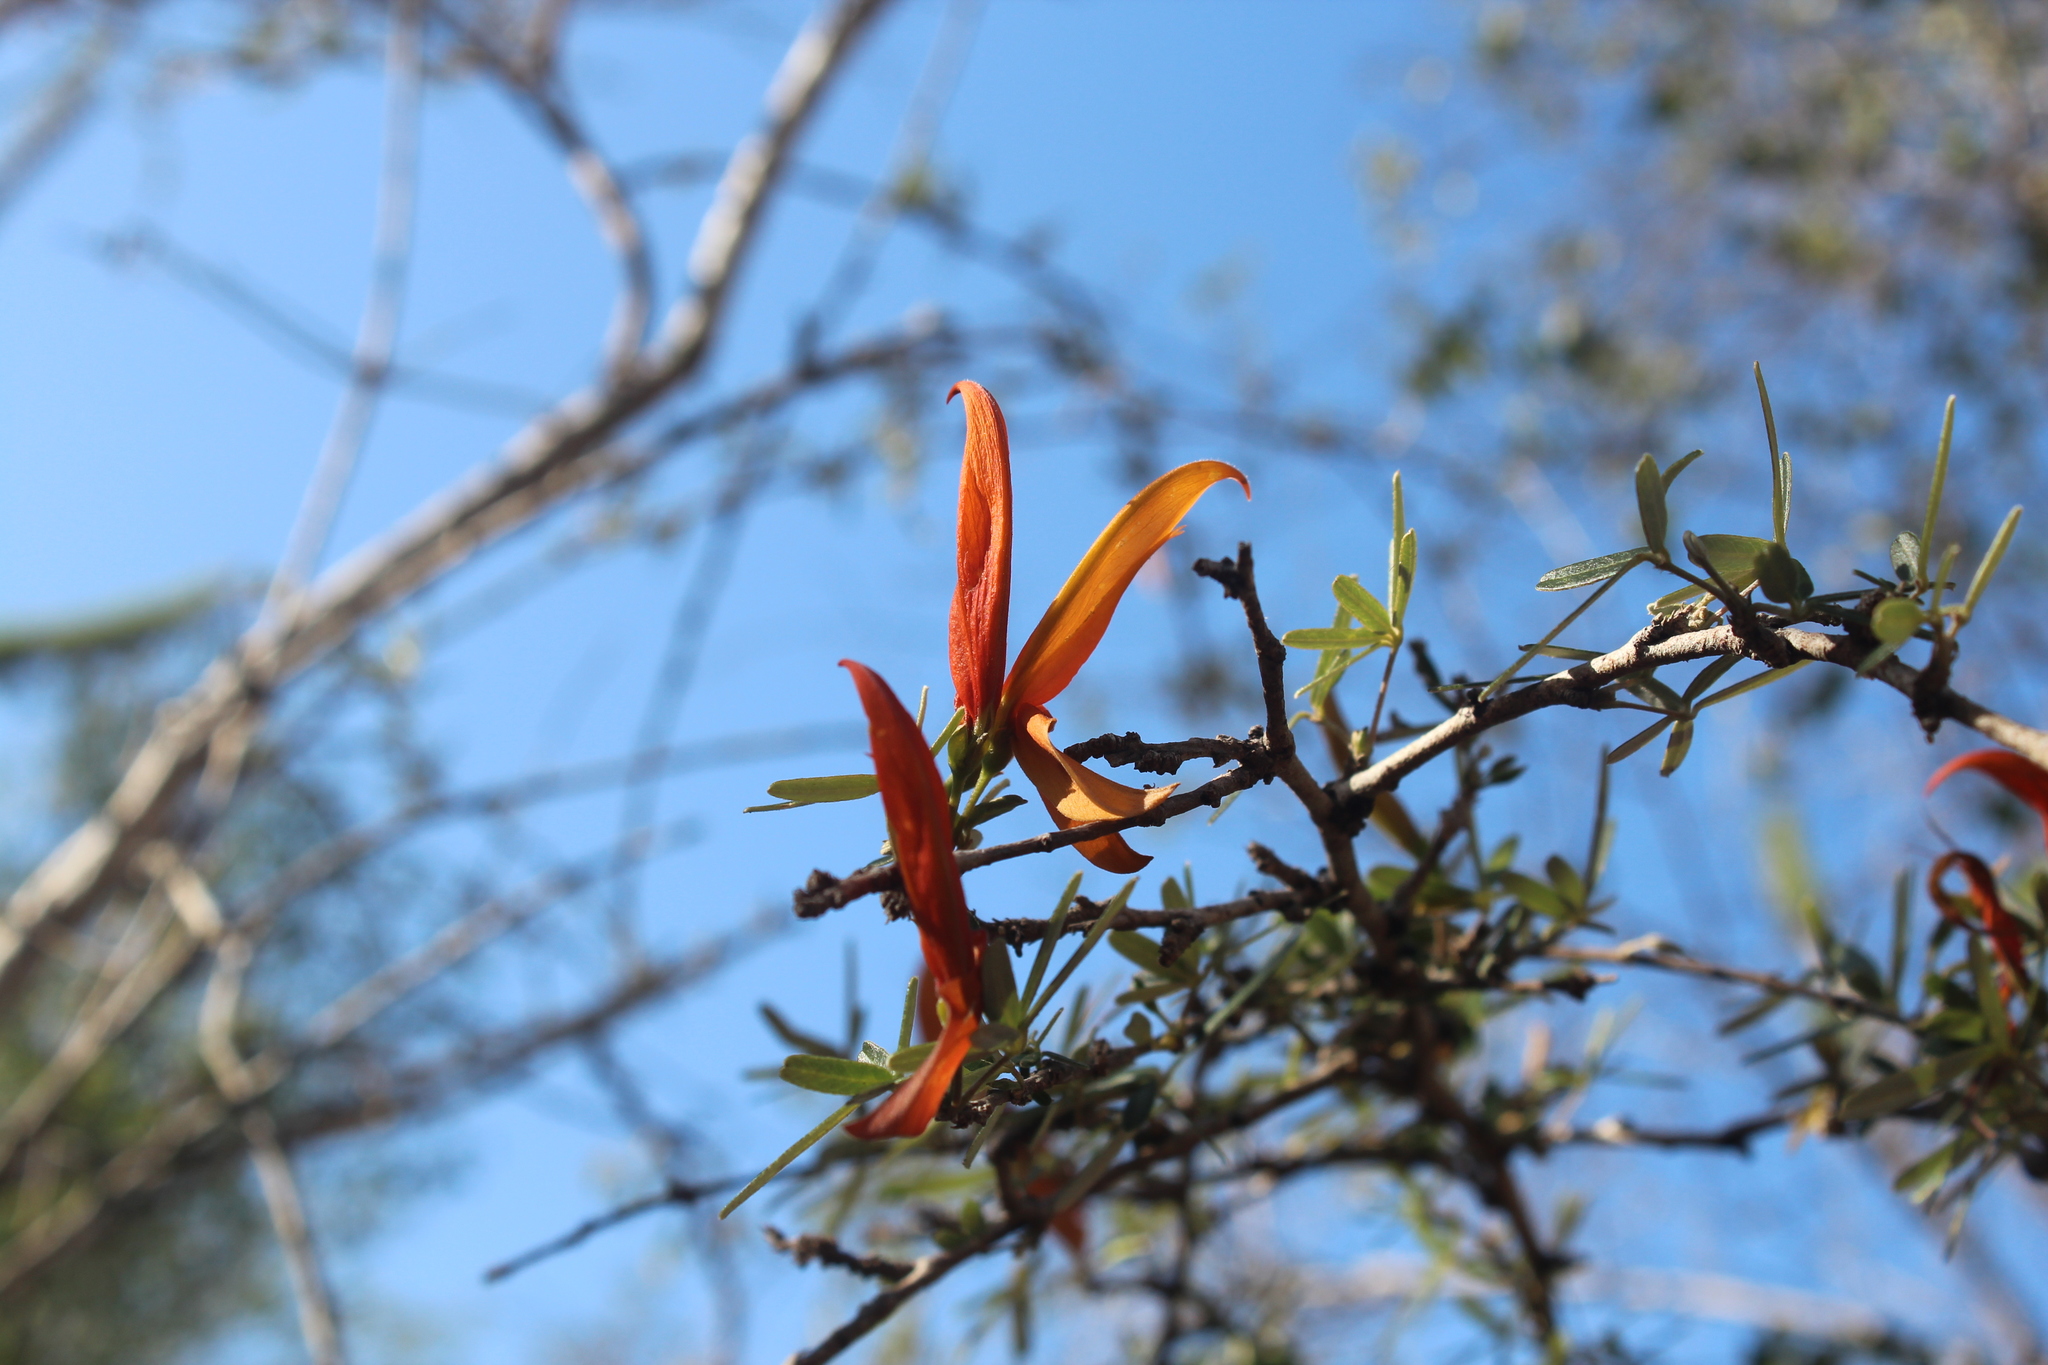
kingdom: Plantae
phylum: Tracheophyta
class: Magnoliopsida
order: Fabales
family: Fabaceae
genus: Chadsia
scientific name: Chadsia grevei
